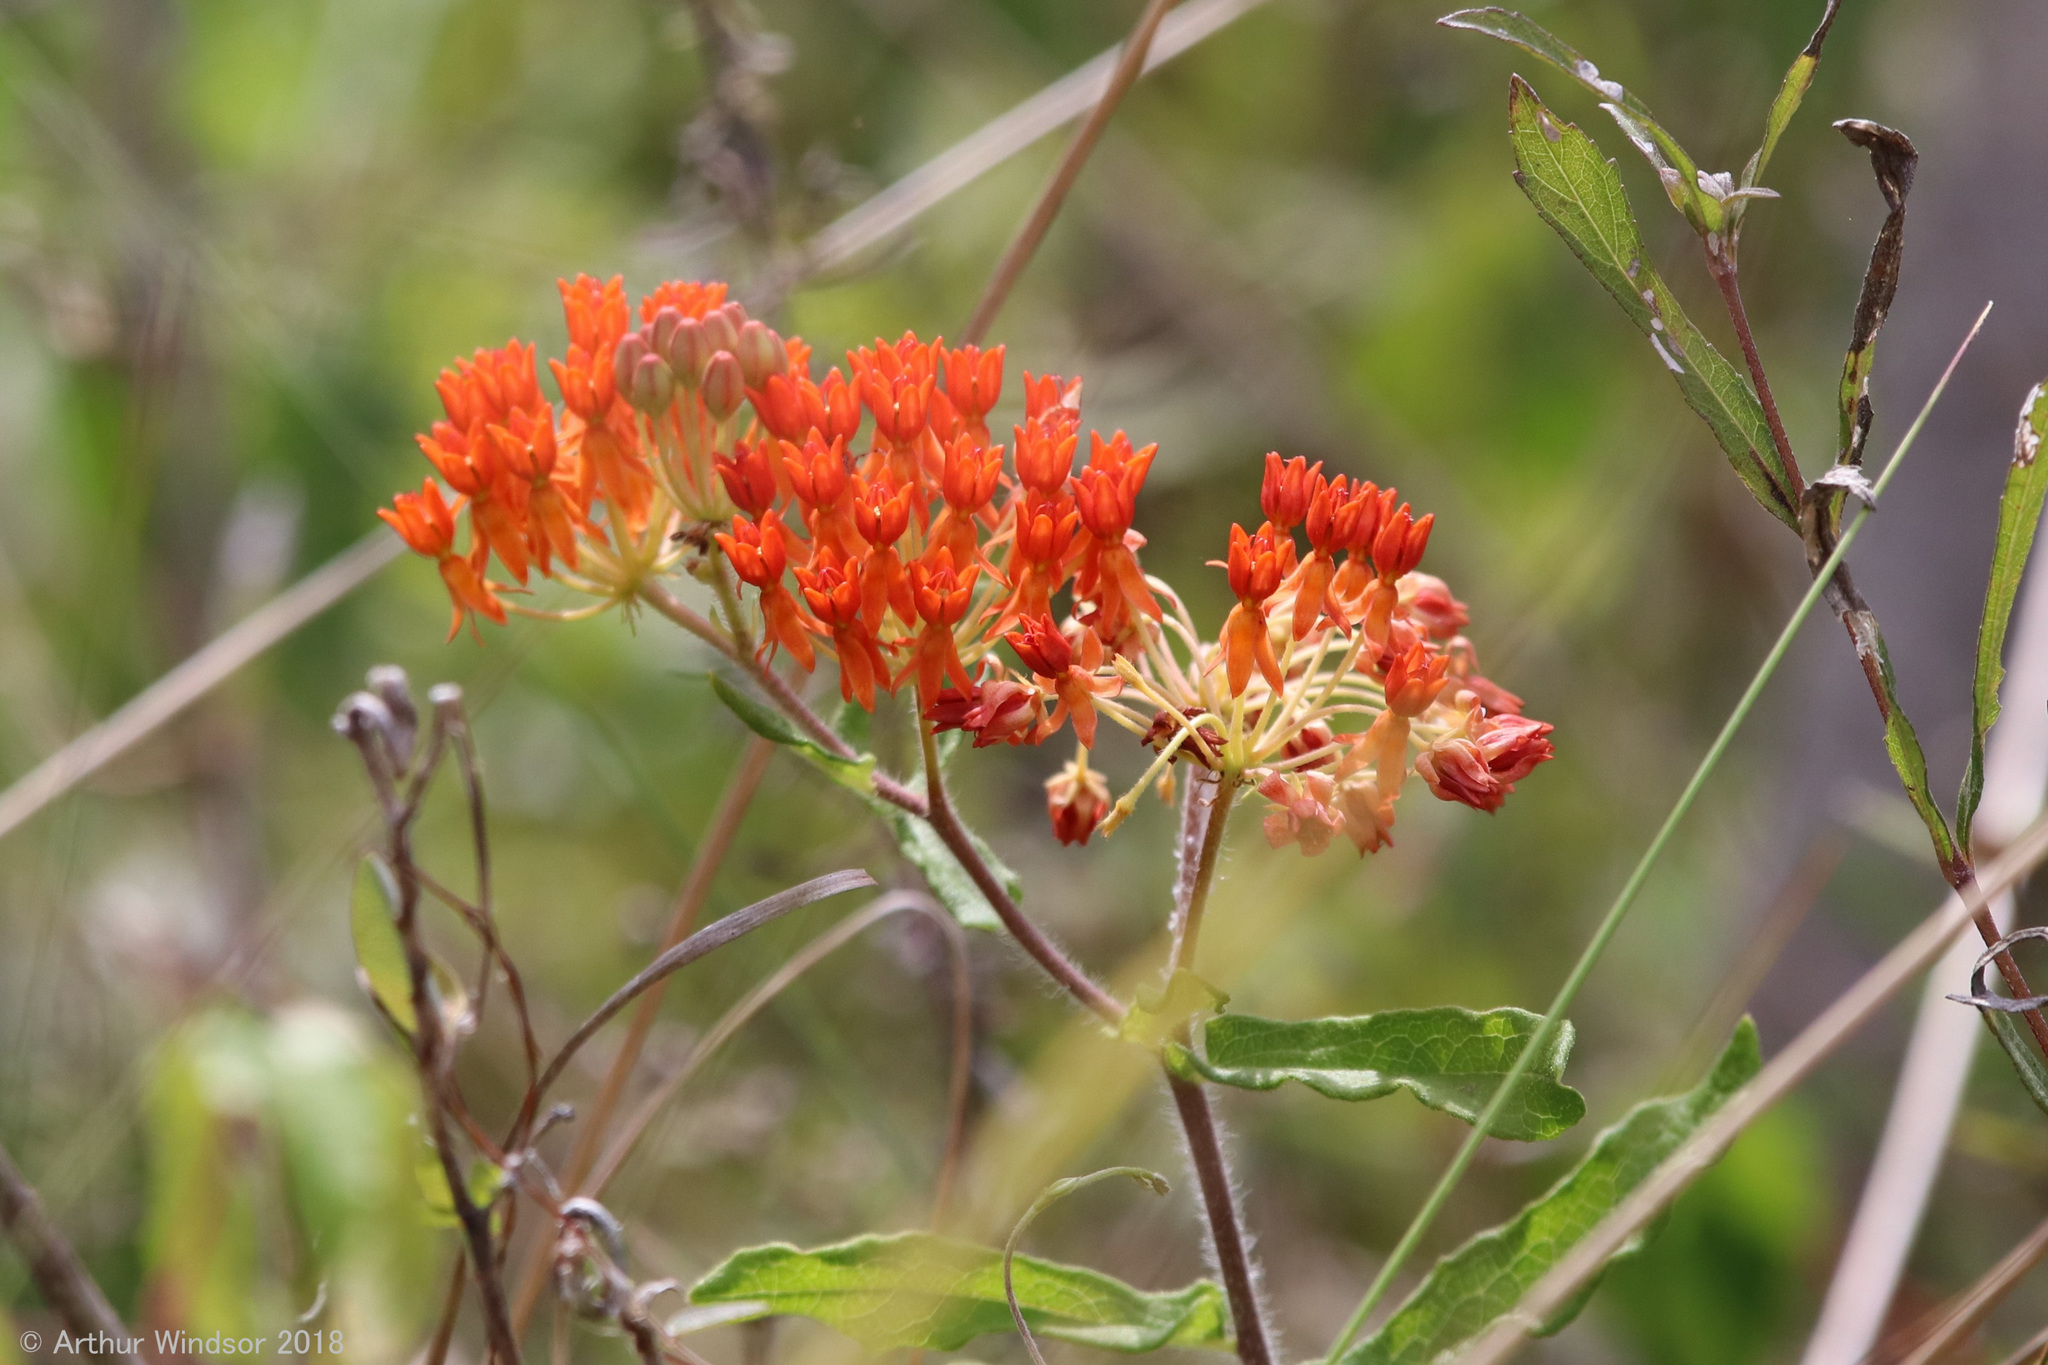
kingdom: Plantae
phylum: Tracheophyta
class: Magnoliopsida
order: Gentianales
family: Apocynaceae
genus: Asclepias
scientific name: Asclepias tuberosa
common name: Butterfly milkweed
